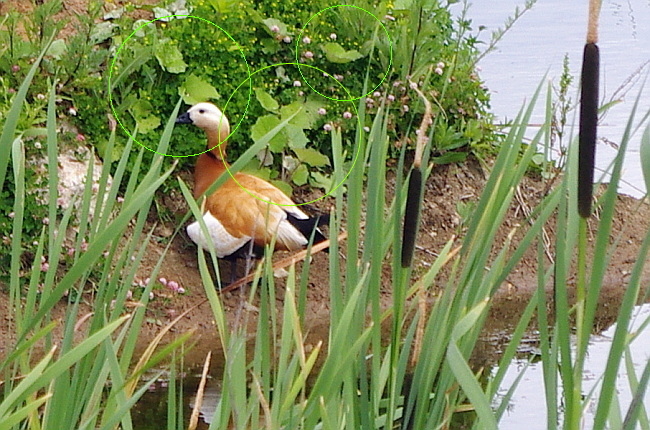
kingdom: Plantae
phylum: Tracheophyta
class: Magnoliopsida
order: Asterales
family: Asteraceae
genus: Tussilago
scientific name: Tussilago farfara
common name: Coltsfoot
